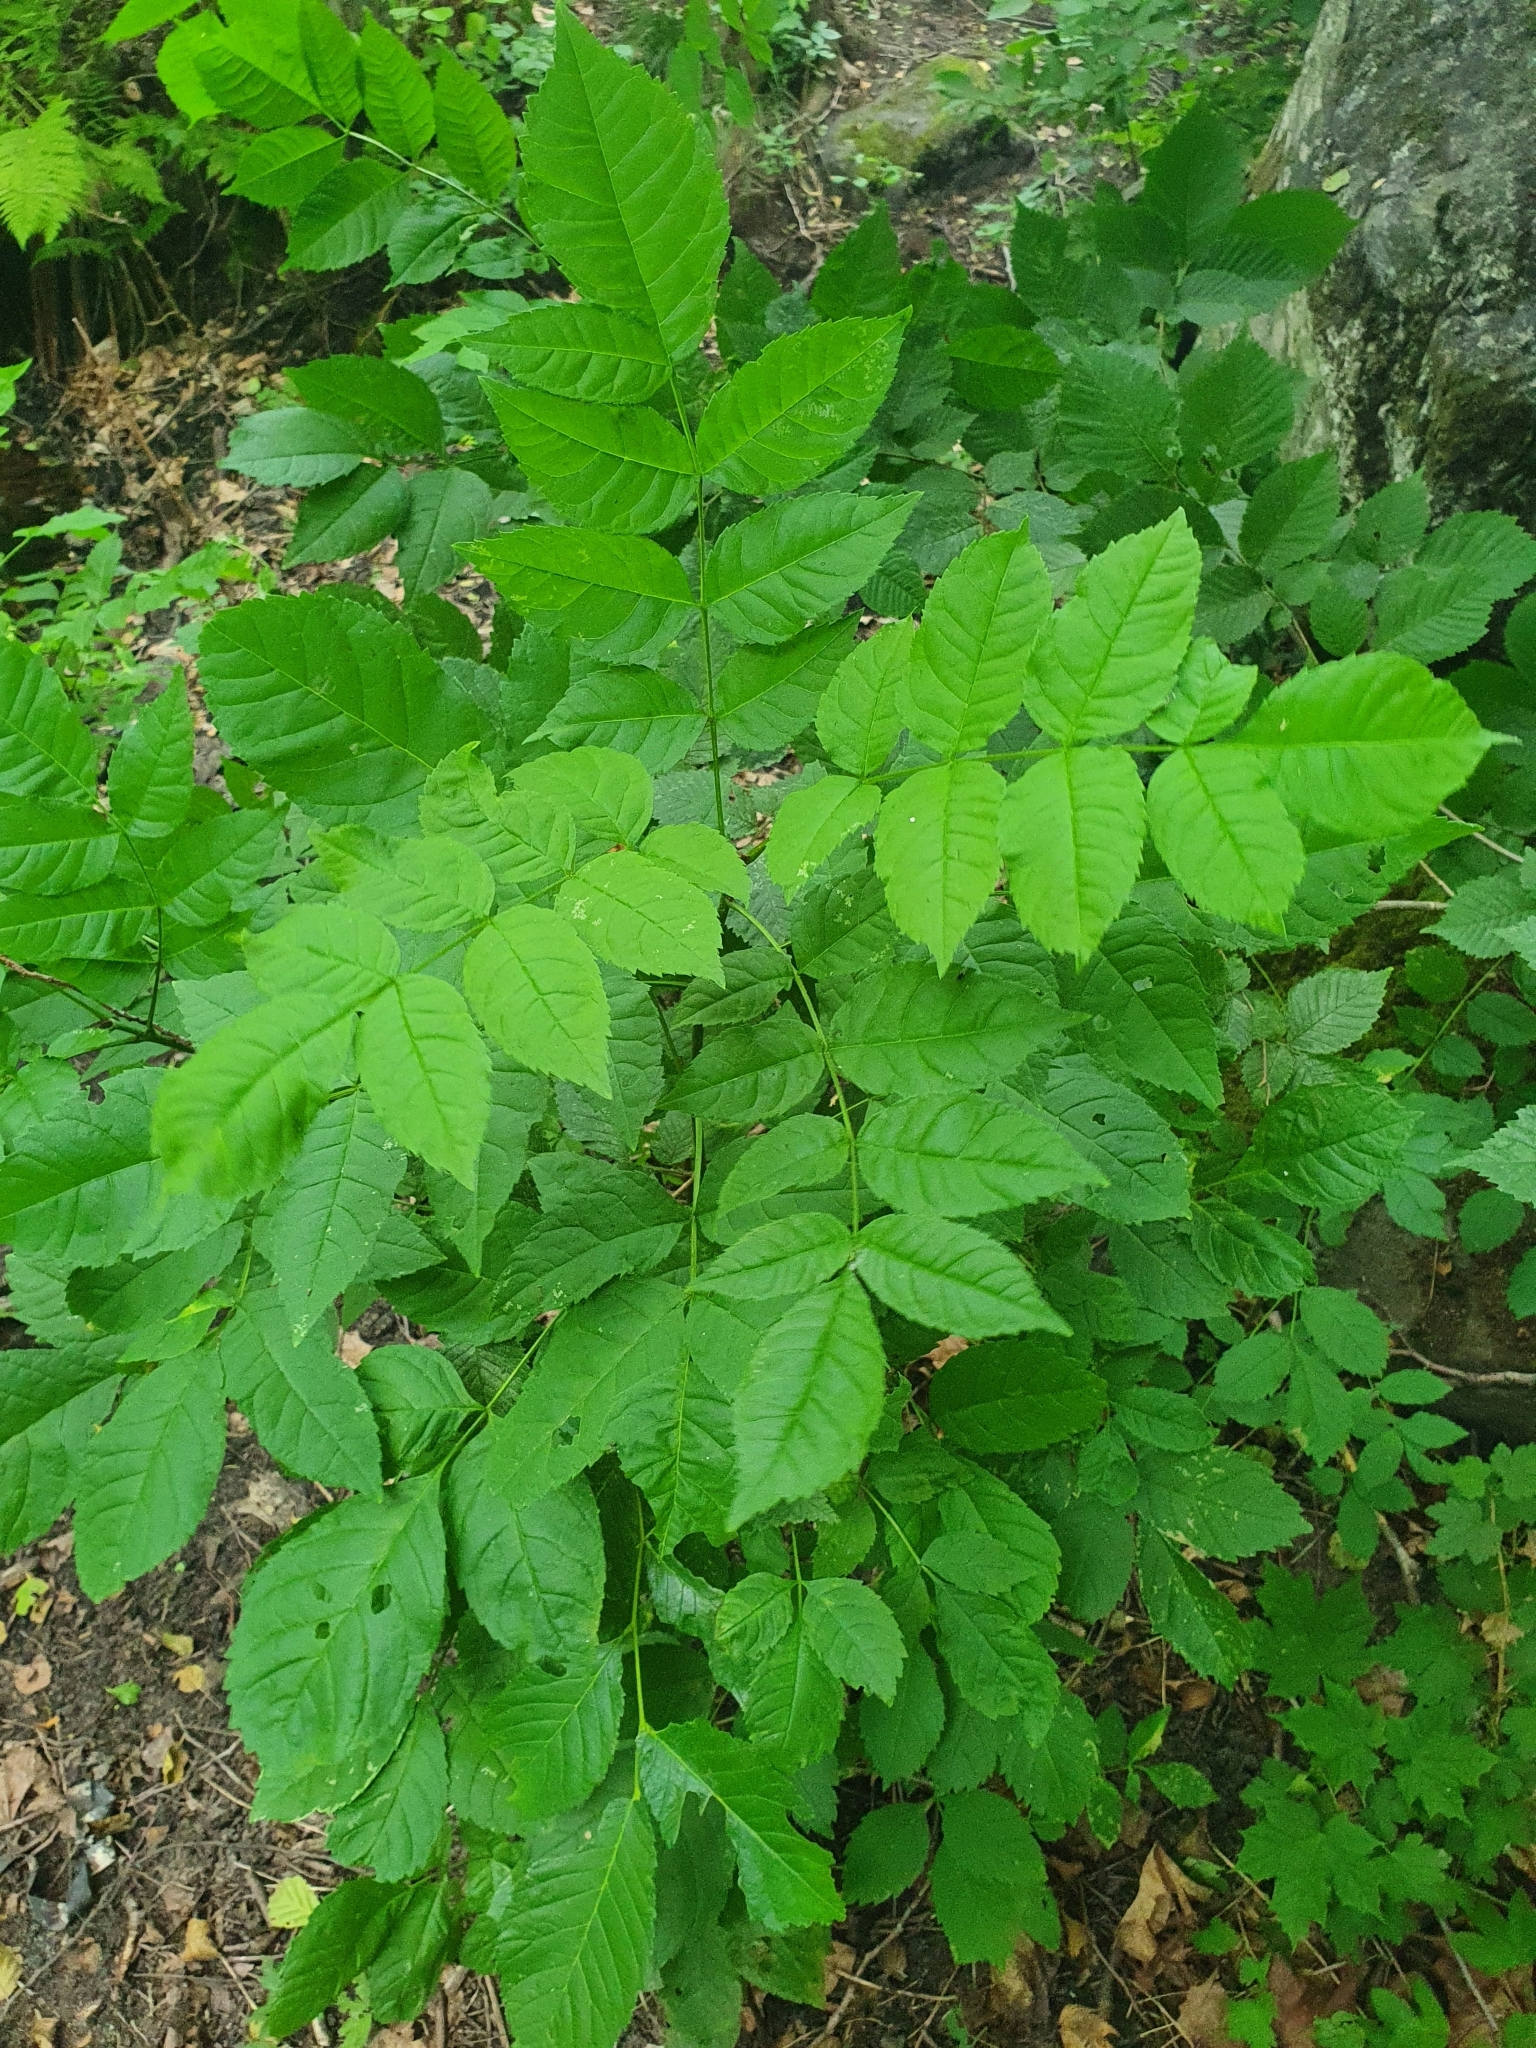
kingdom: Plantae
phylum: Tracheophyta
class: Magnoliopsida
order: Lamiales
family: Oleaceae
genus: Fraxinus
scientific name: Fraxinus excelsior
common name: European ash
